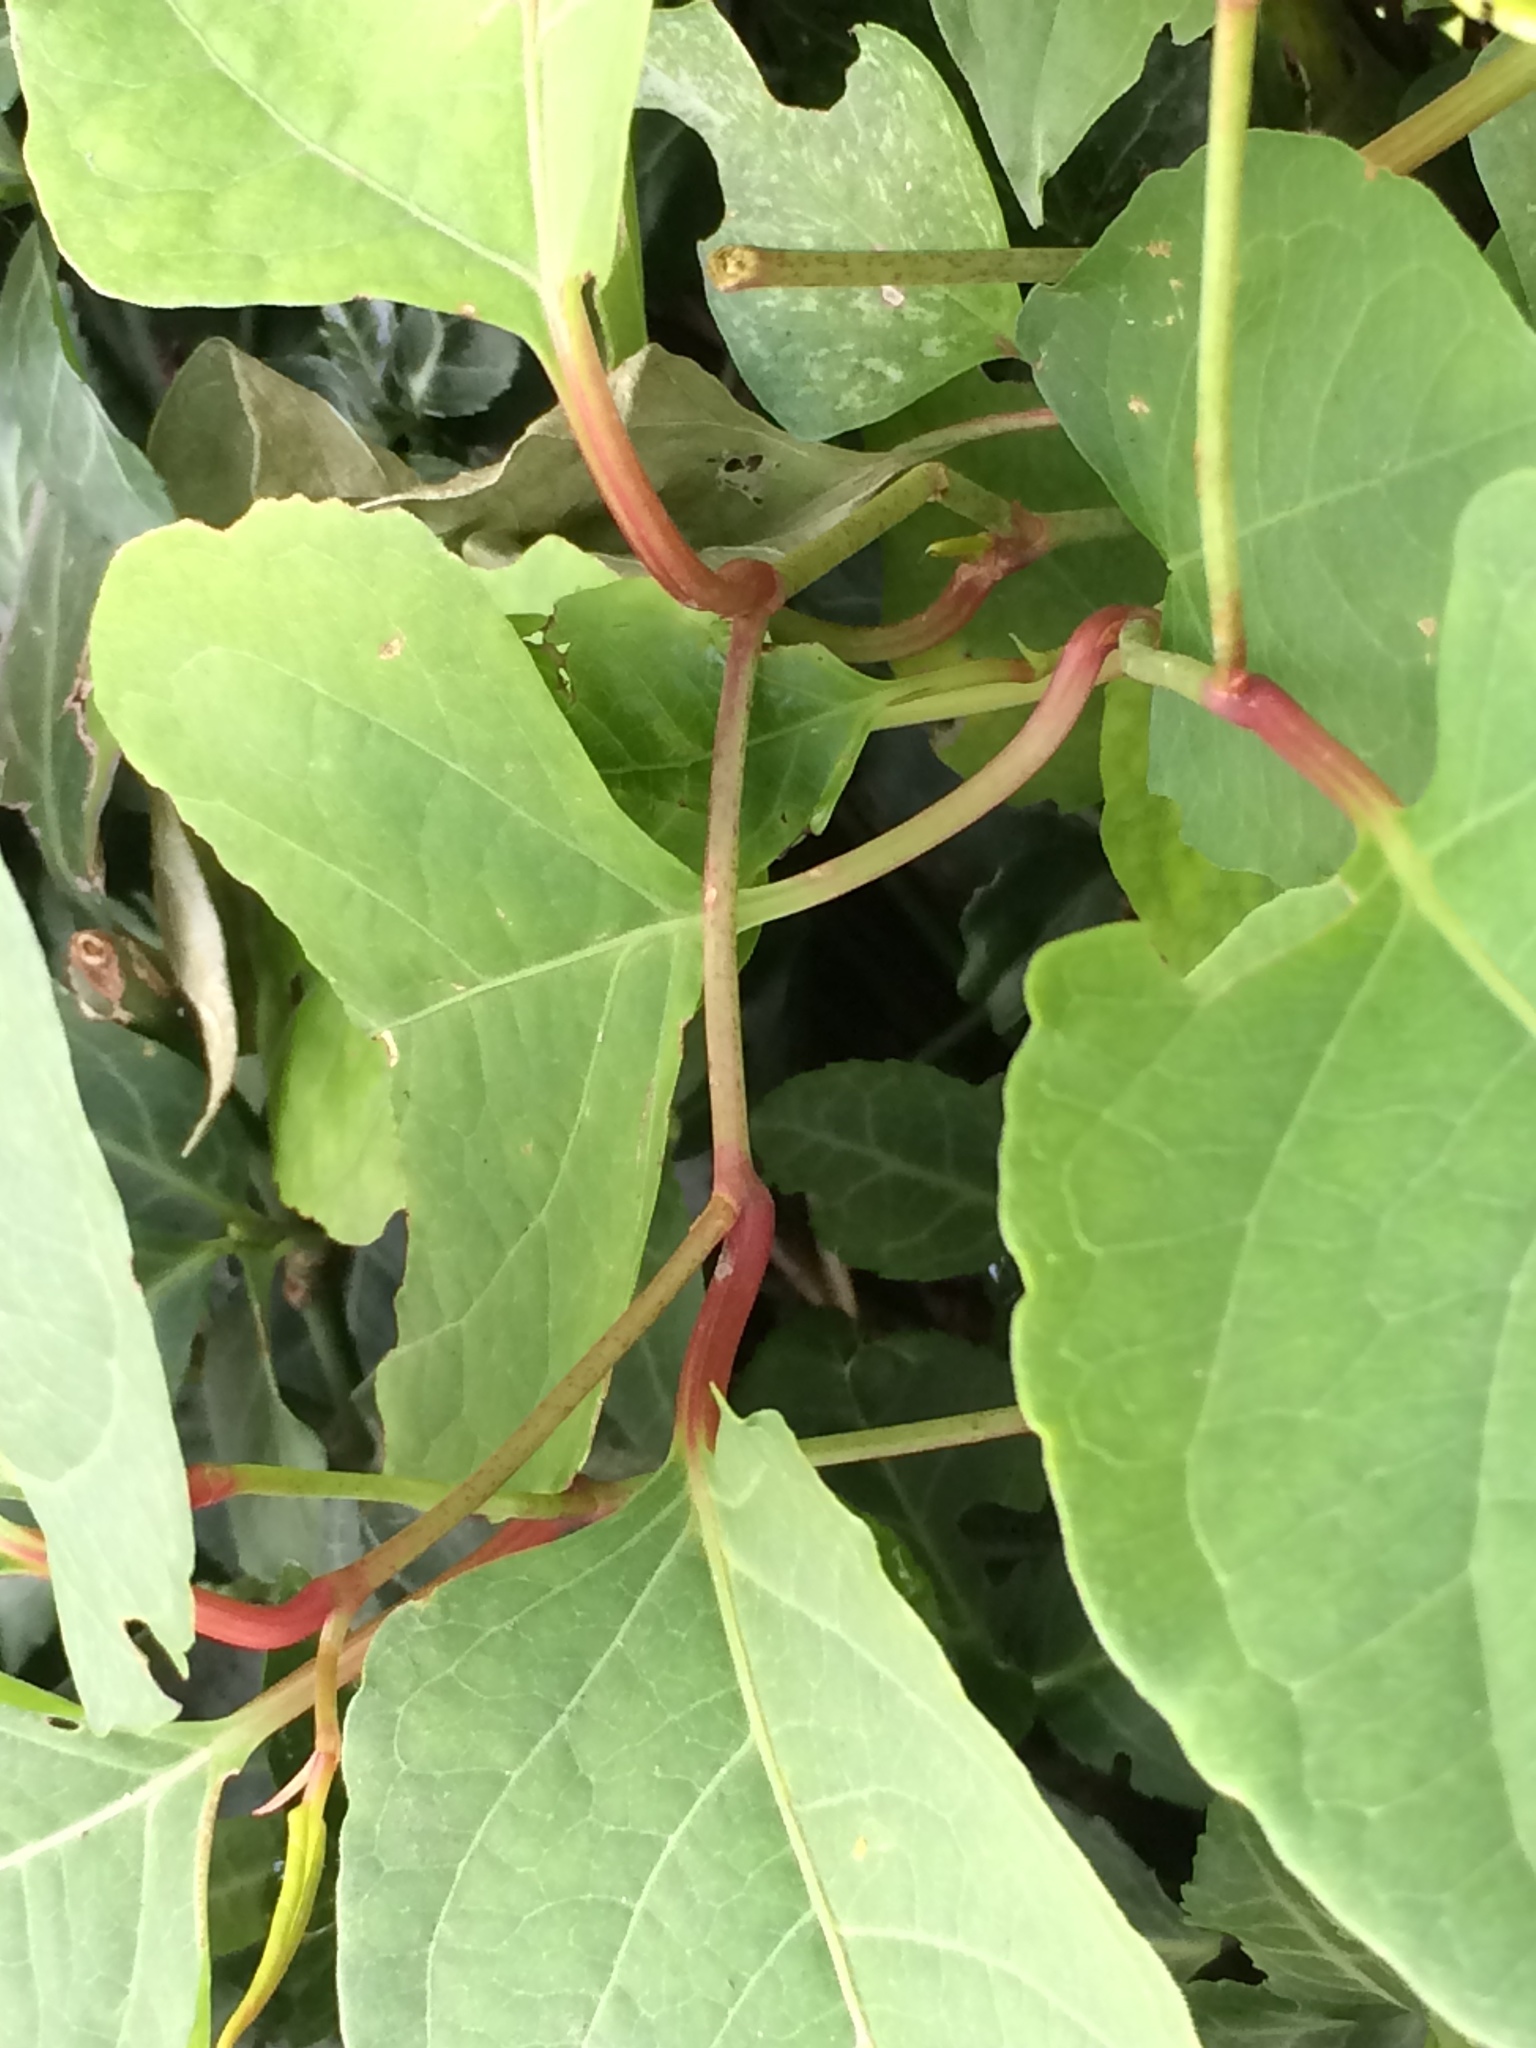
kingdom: Plantae
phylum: Tracheophyta
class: Magnoliopsida
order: Caryophyllales
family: Polygonaceae
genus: Reynoutria
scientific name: Reynoutria japonica
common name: Japanese knotweed
